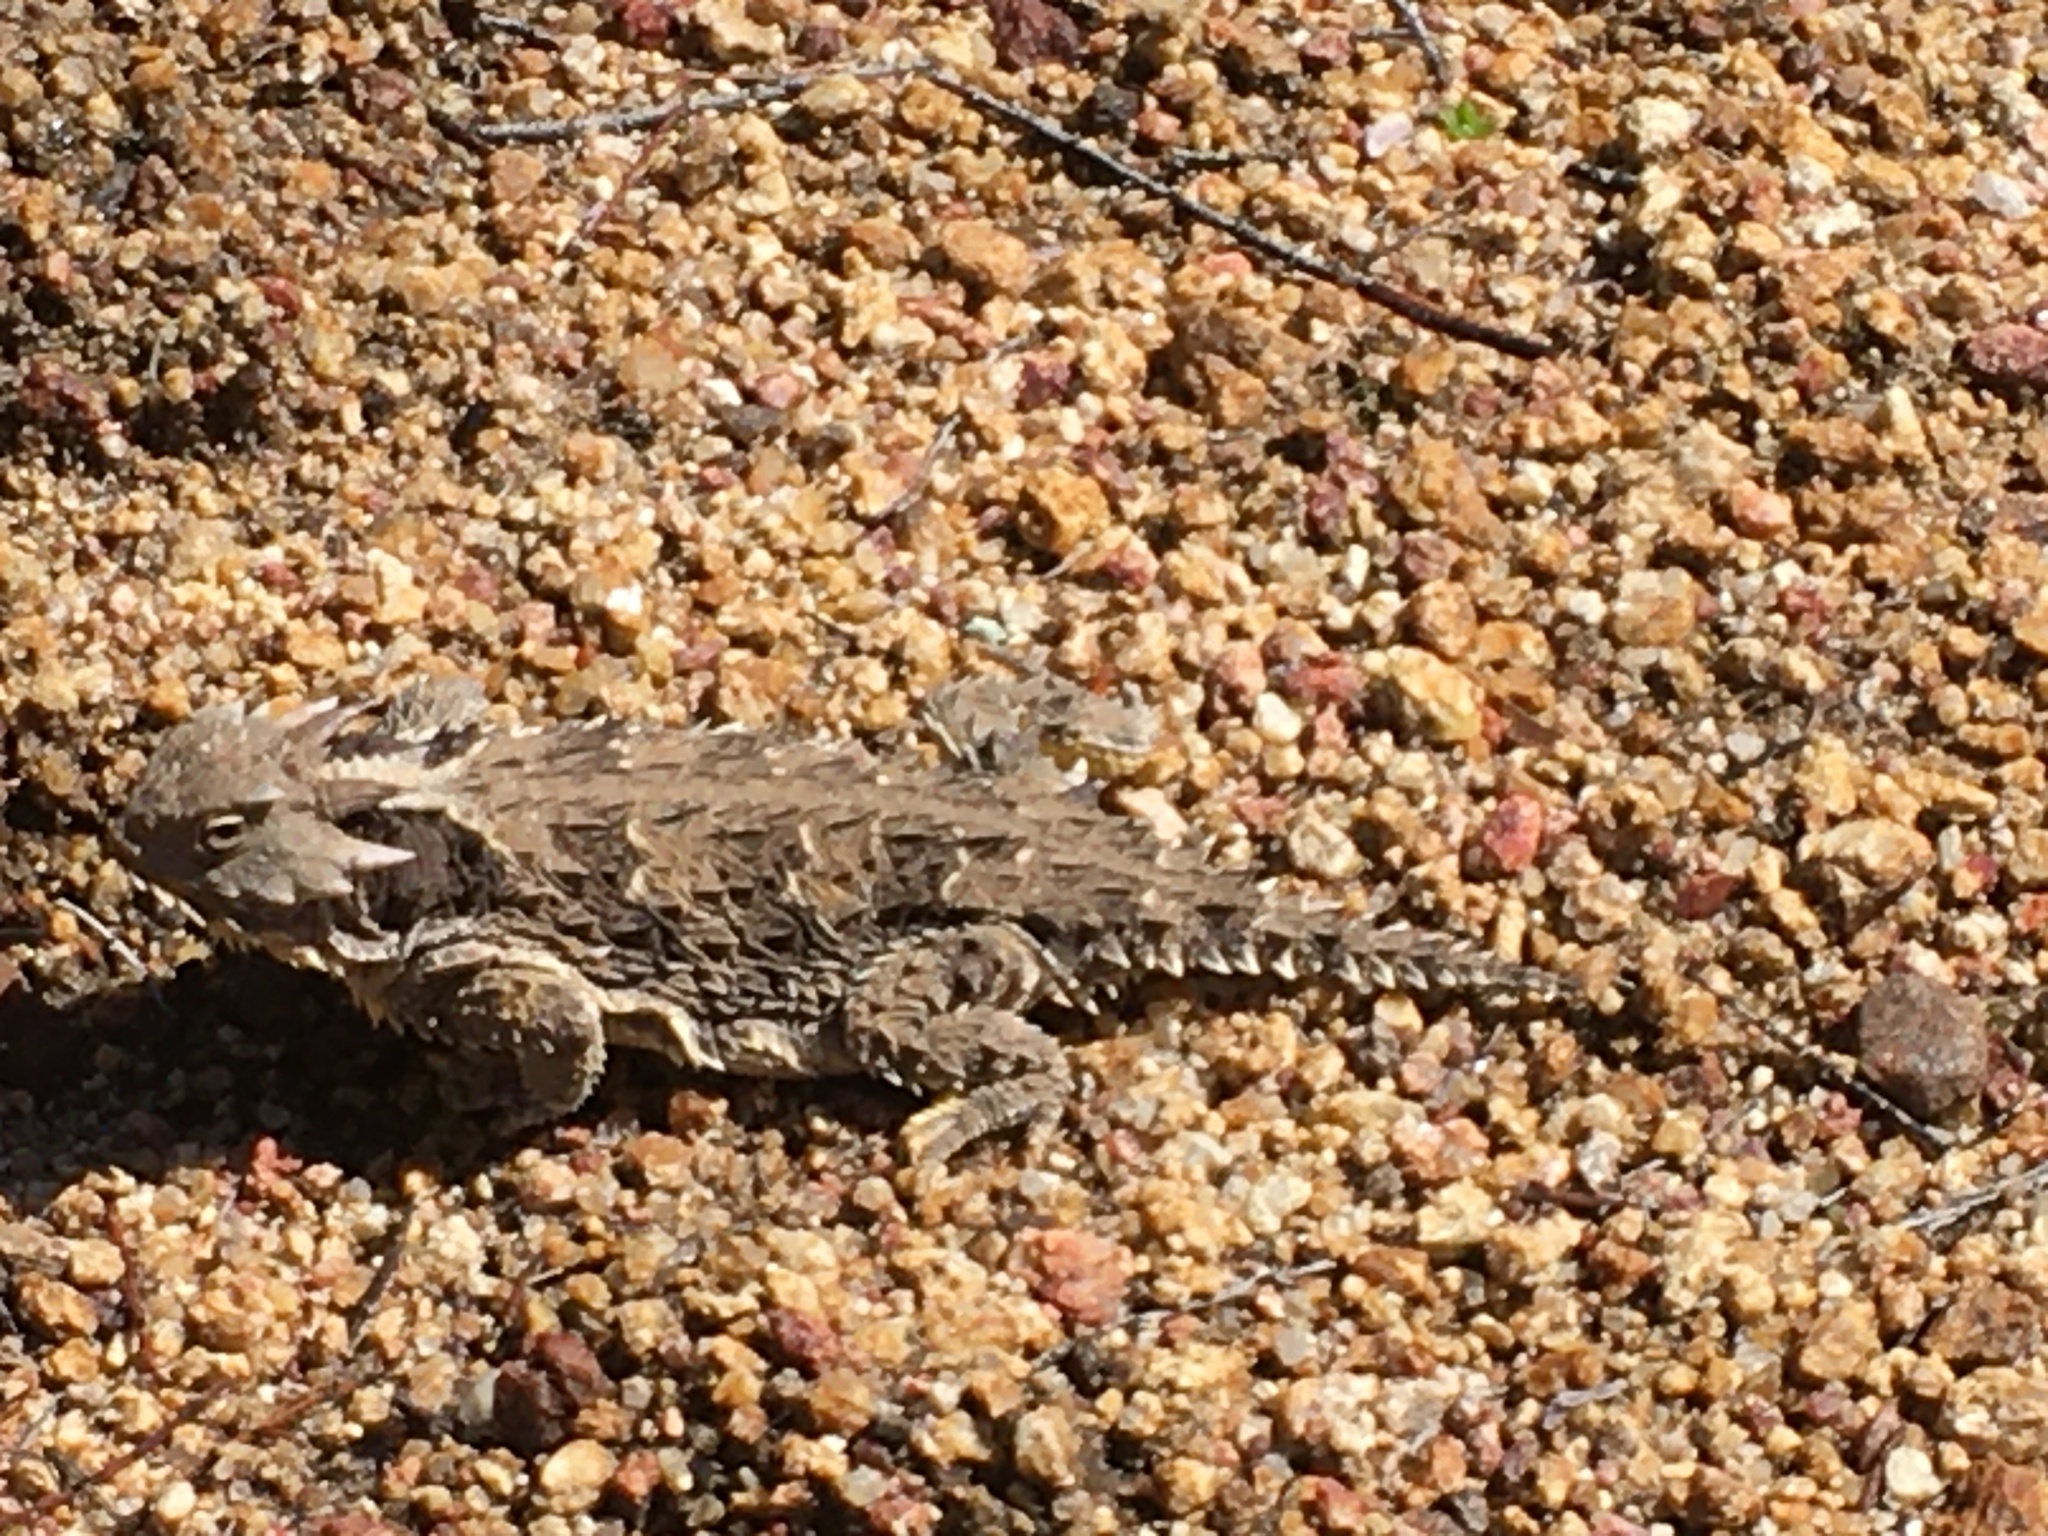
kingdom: Animalia
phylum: Chordata
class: Squamata
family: Phrynosomatidae
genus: Phrynosoma
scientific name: Phrynosoma blainvillii
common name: San diego horned lizard
